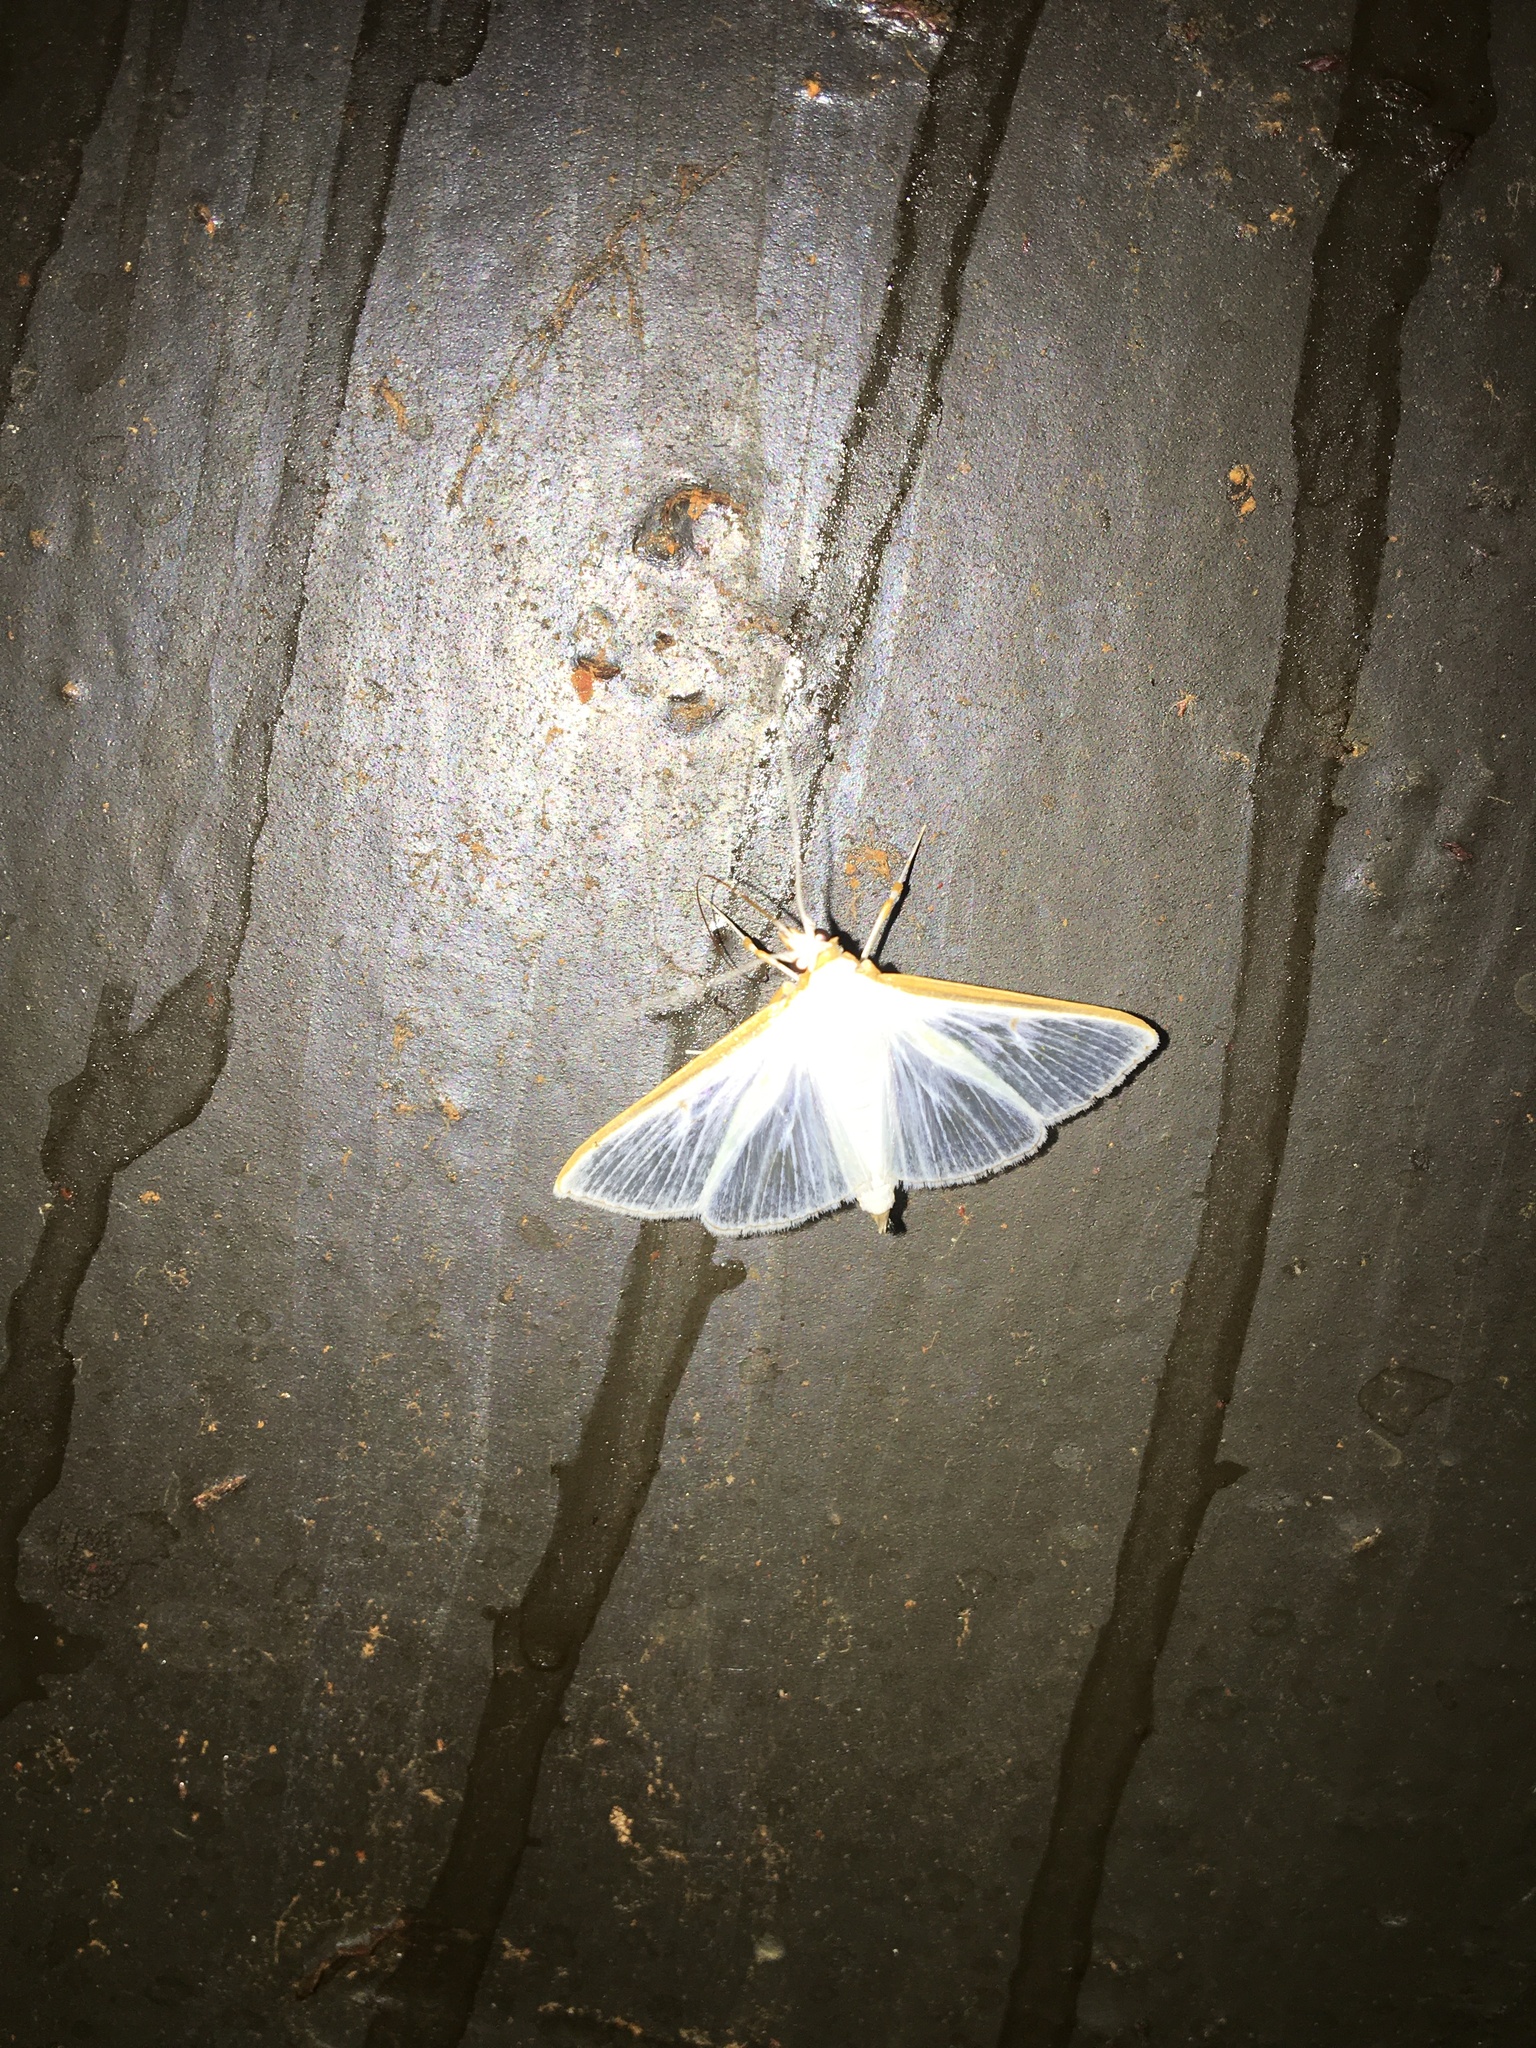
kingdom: Animalia
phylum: Arthropoda
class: Insecta
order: Lepidoptera
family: Crambidae
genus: Diaphania
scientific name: Diaphania costata
